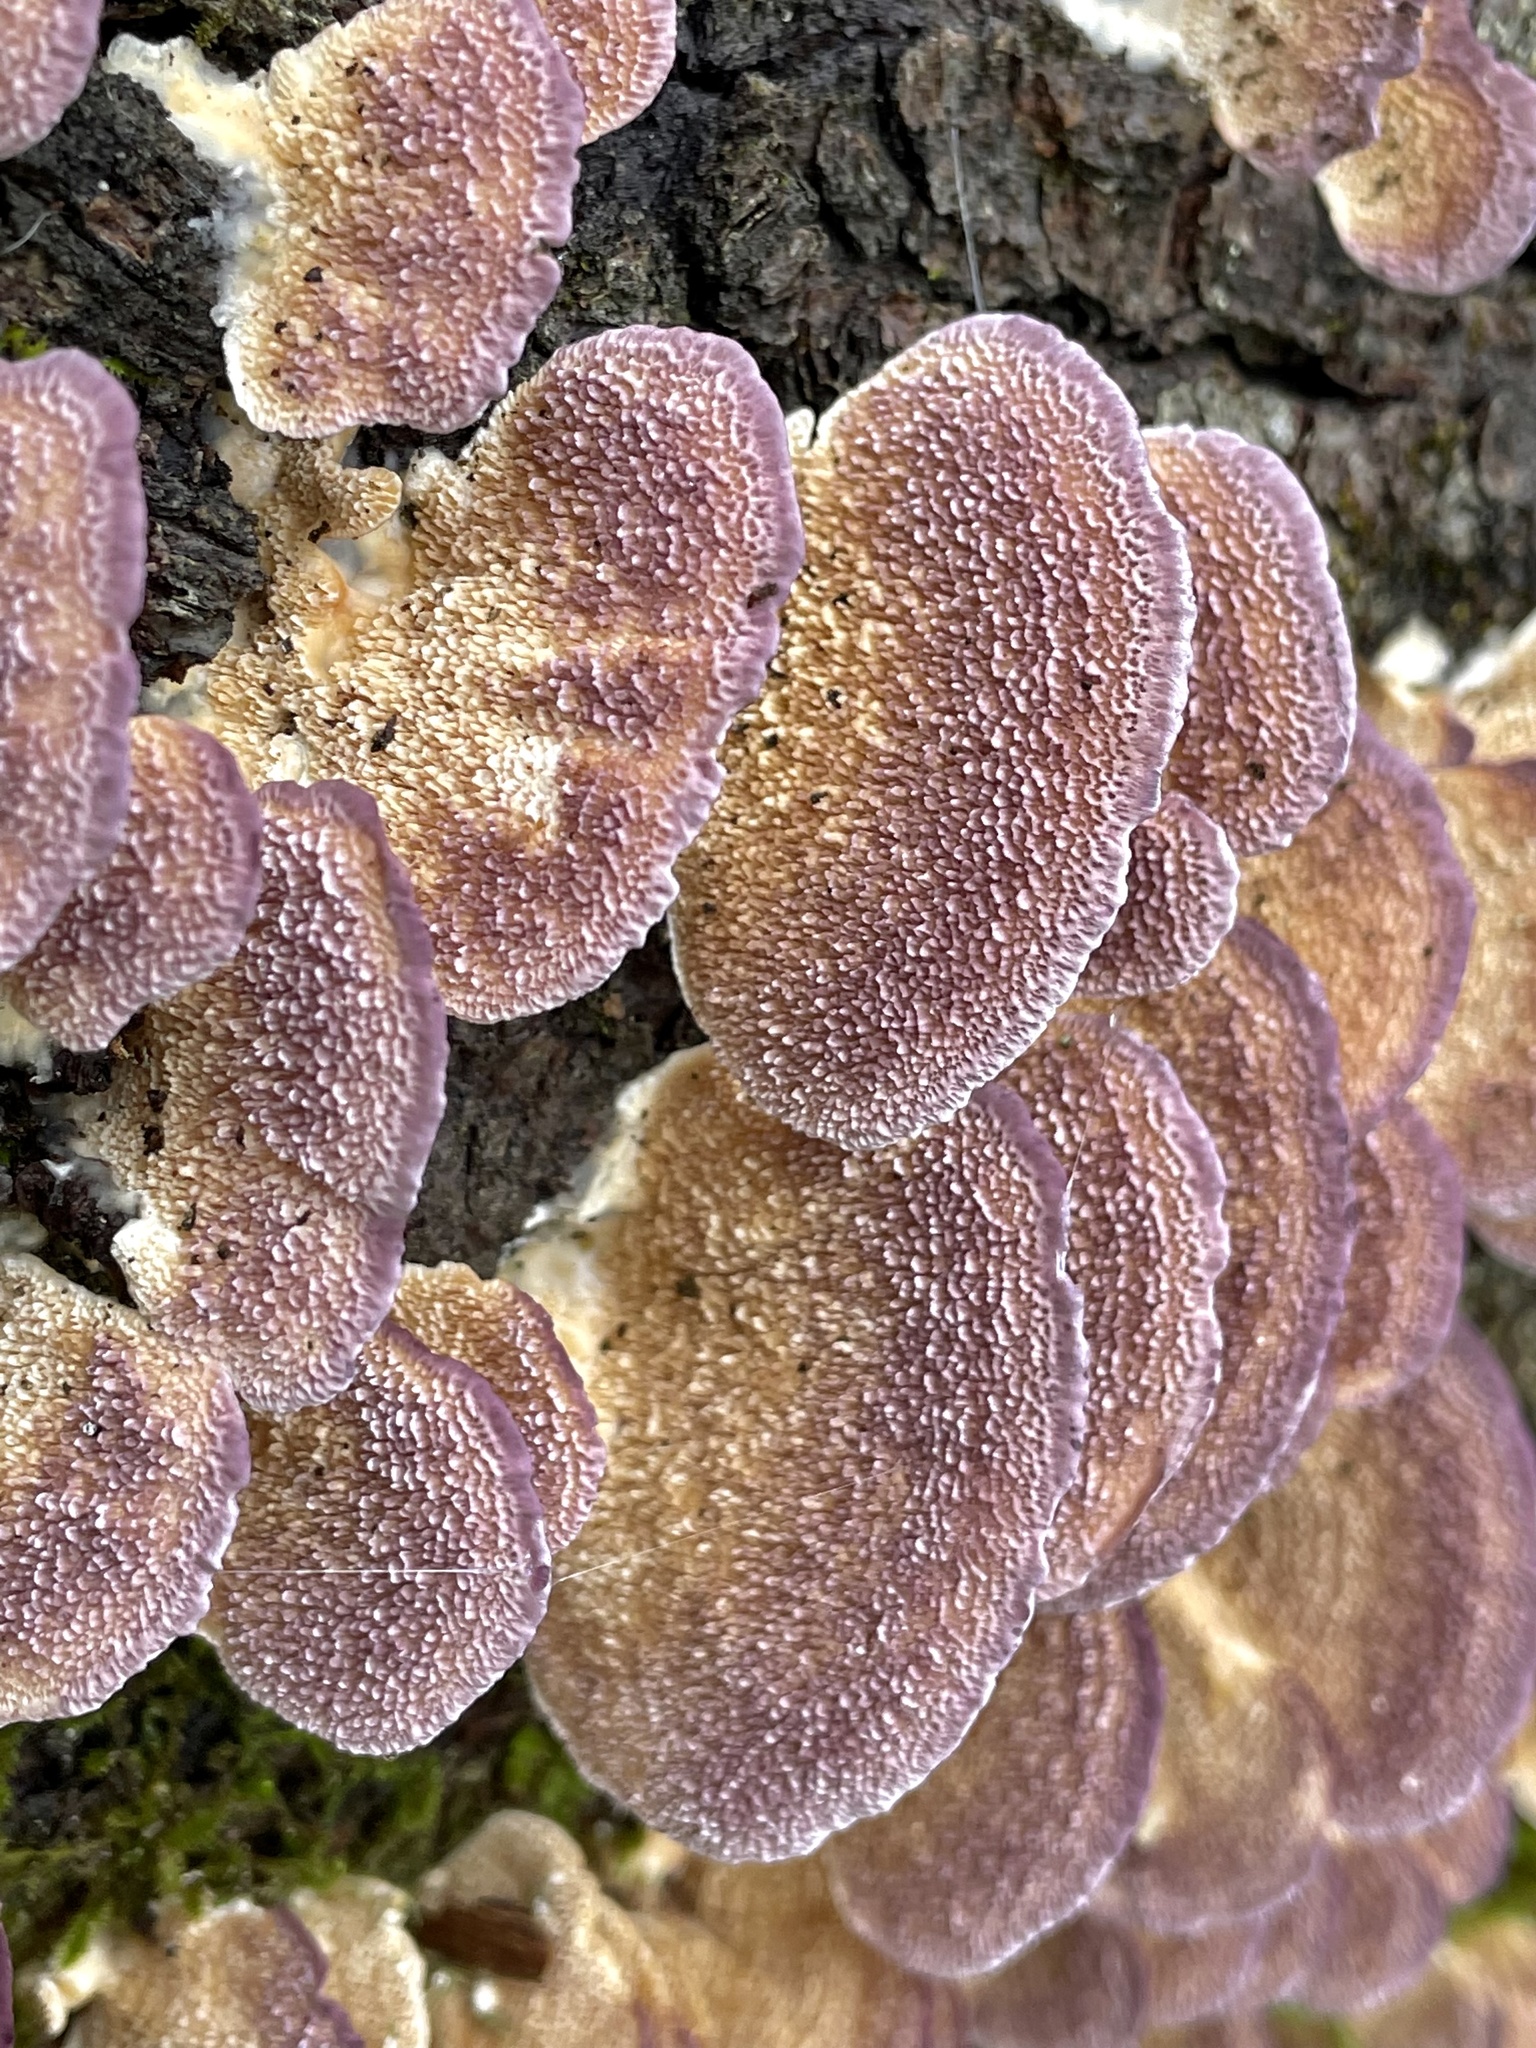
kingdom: Fungi
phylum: Basidiomycota
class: Agaricomycetes
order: Hymenochaetales
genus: Trichaptum
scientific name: Trichaptum biforme
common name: Violet-toothed polypore
